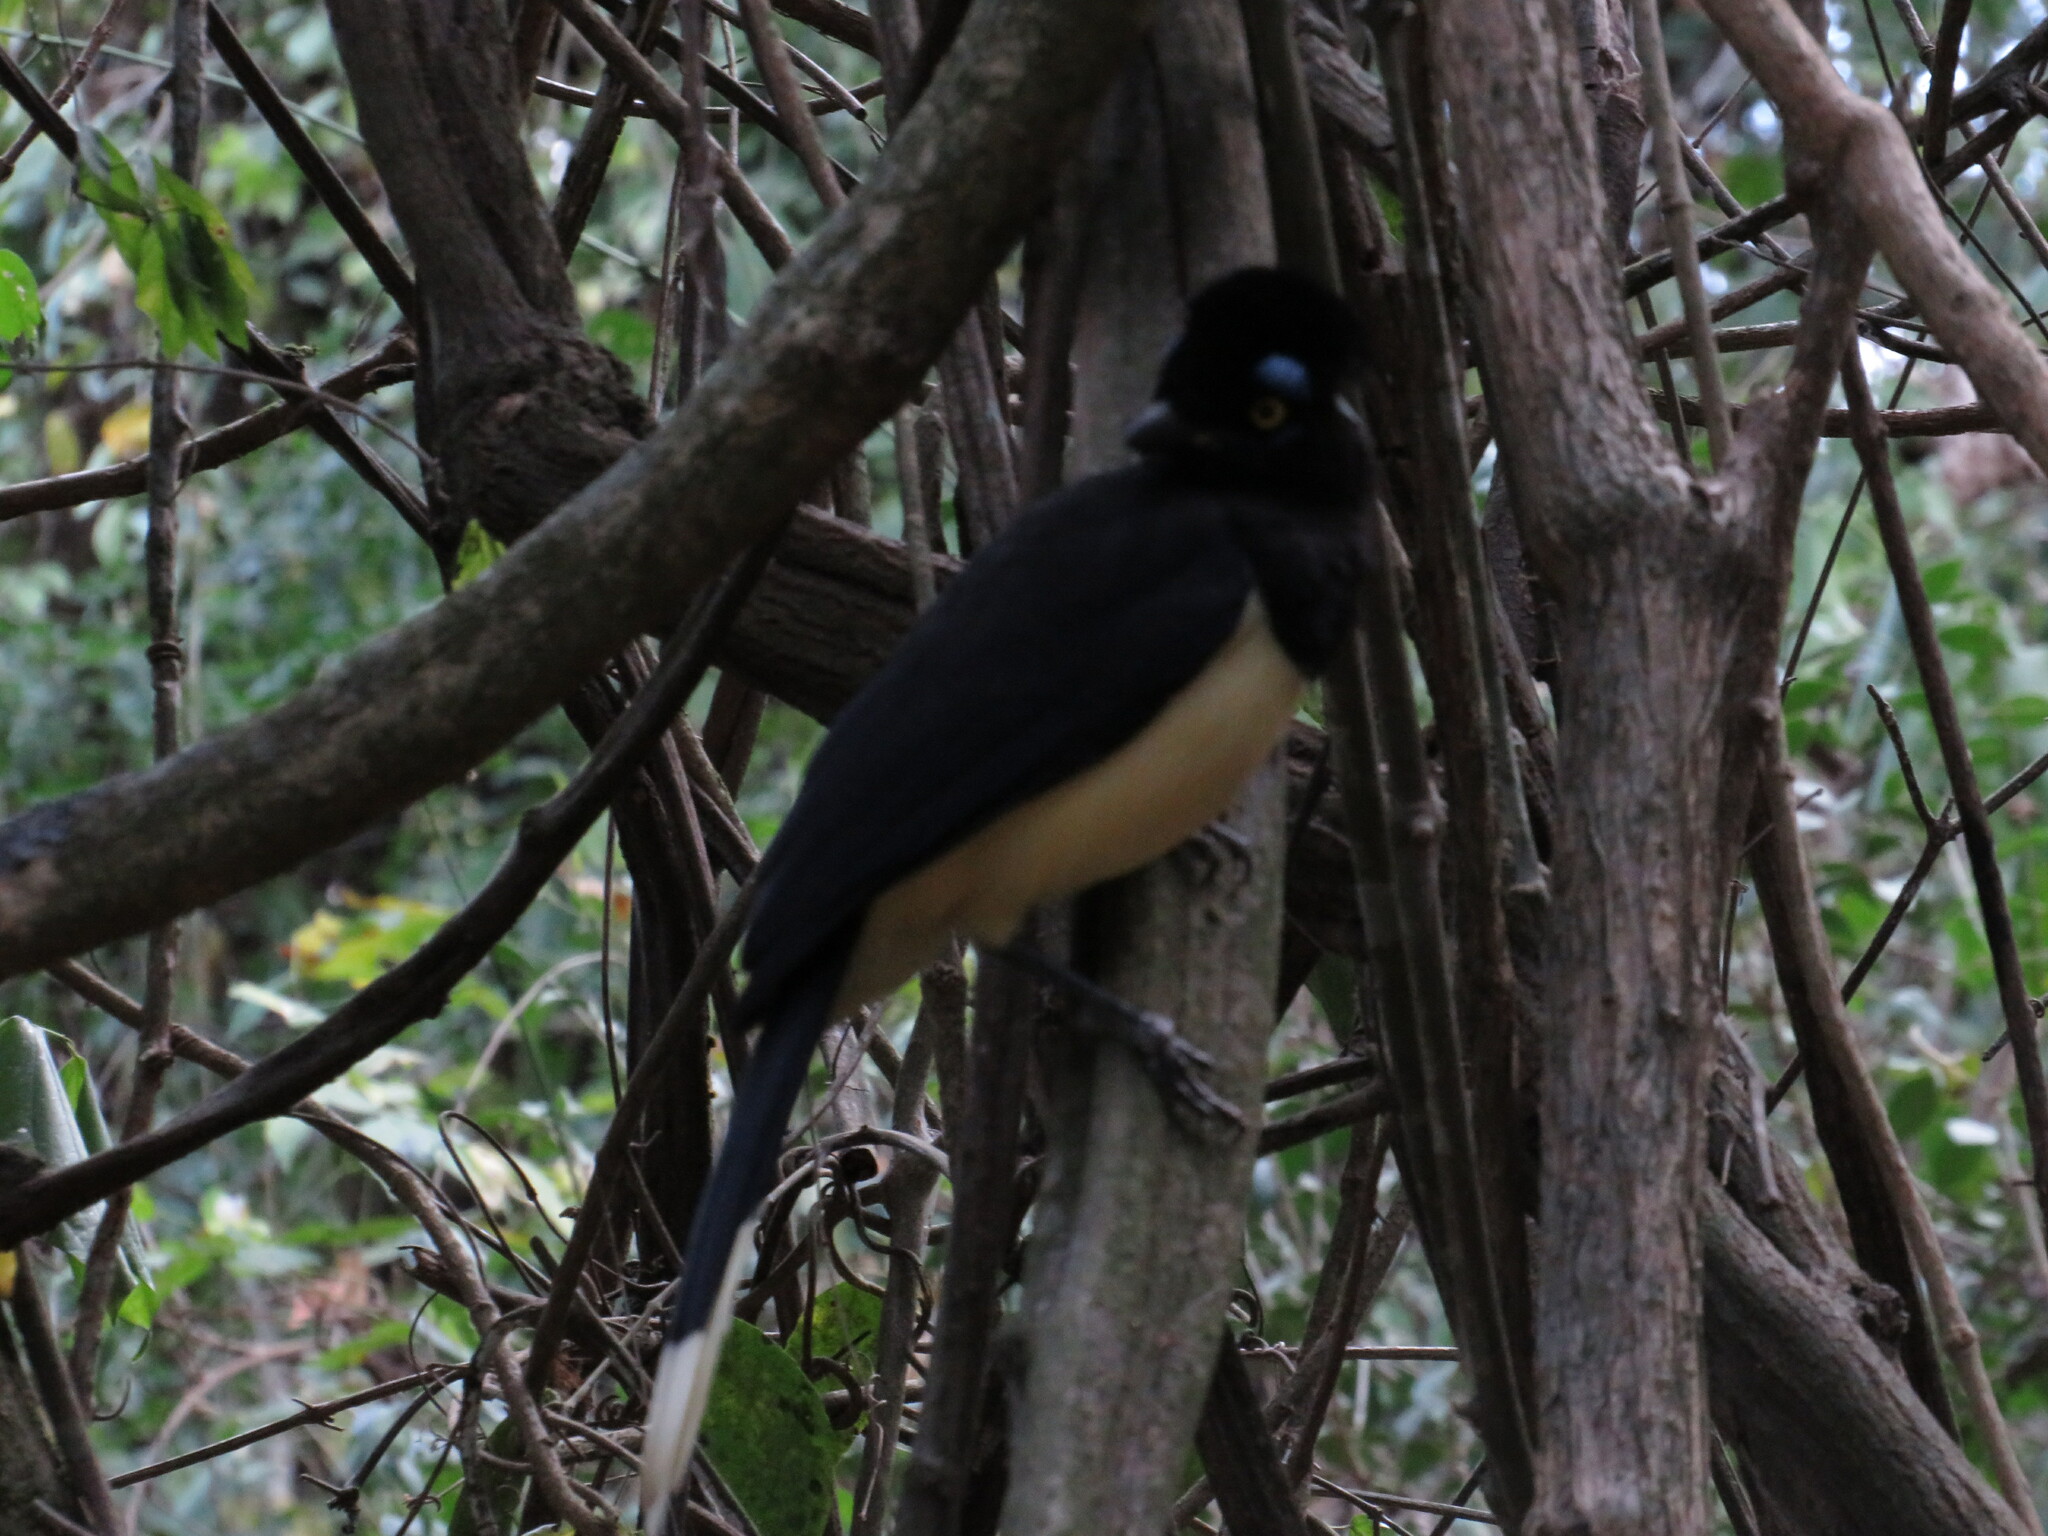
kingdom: Animalia
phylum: Chordata
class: Aves
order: Passeriformes
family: Corvidae
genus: Cyanocorax
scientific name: Cyanocorax chrysops
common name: Plush-crested jay
